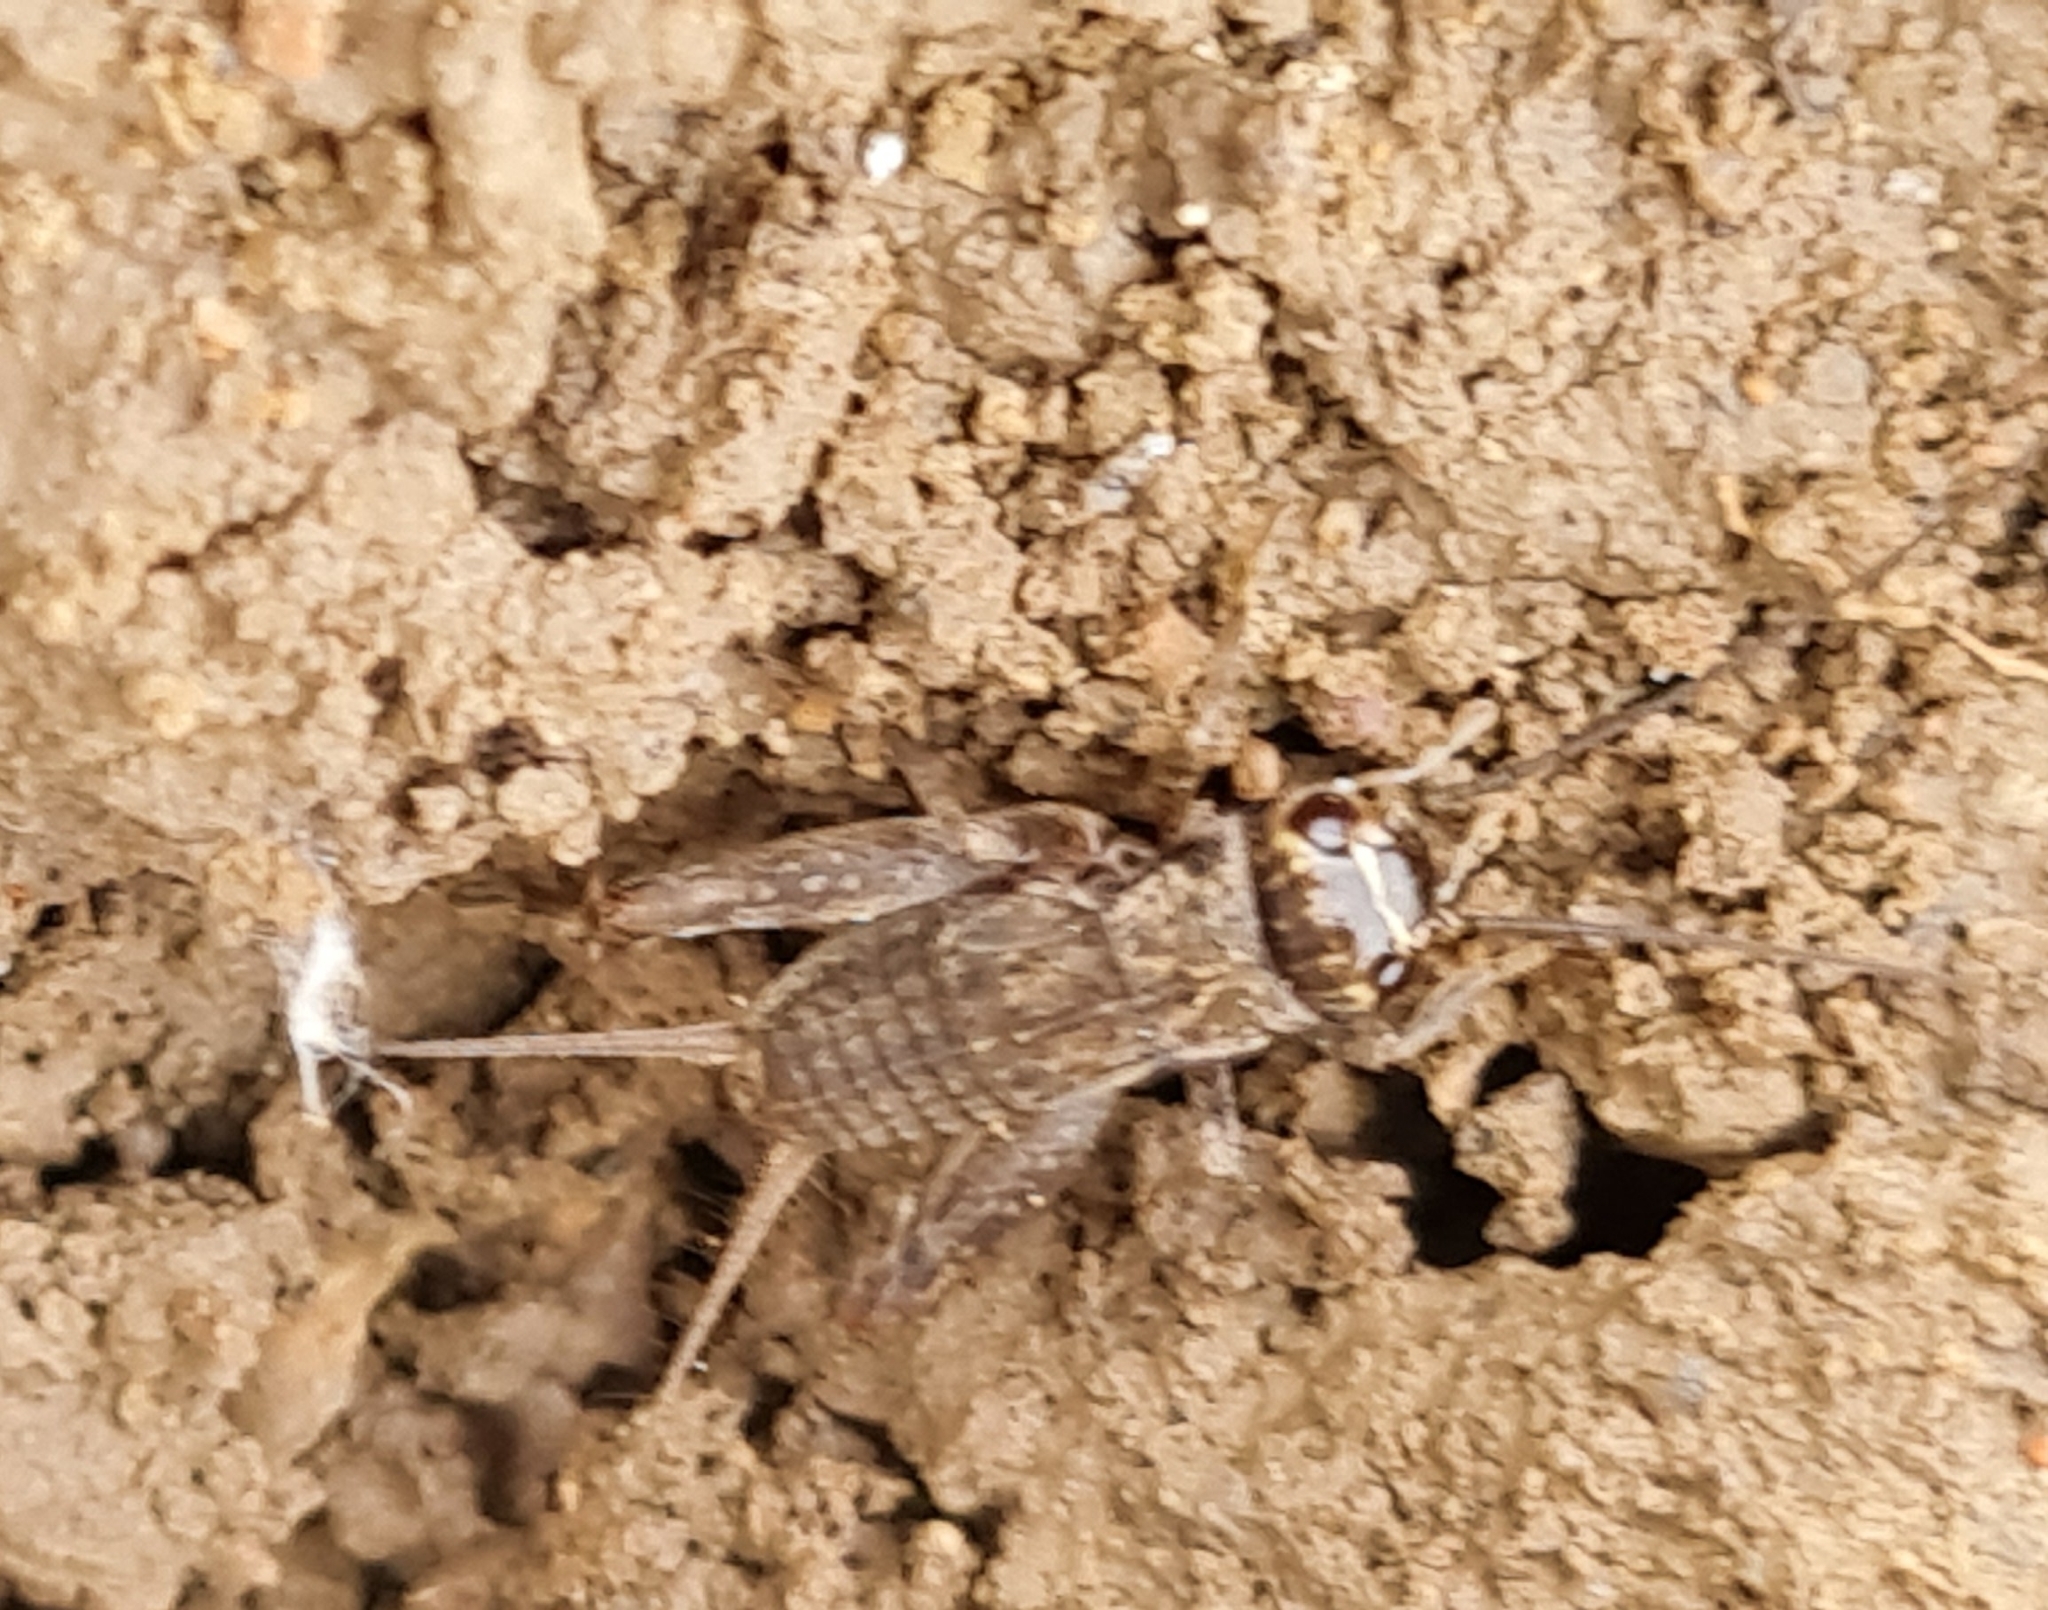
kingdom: Animalia
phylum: Arthropoda
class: Insecta
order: Orthoptera
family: Gryllidae
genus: Eumodicogryllus
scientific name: Eumodicogryllus bordigalensis
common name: Bordeaux cricket
